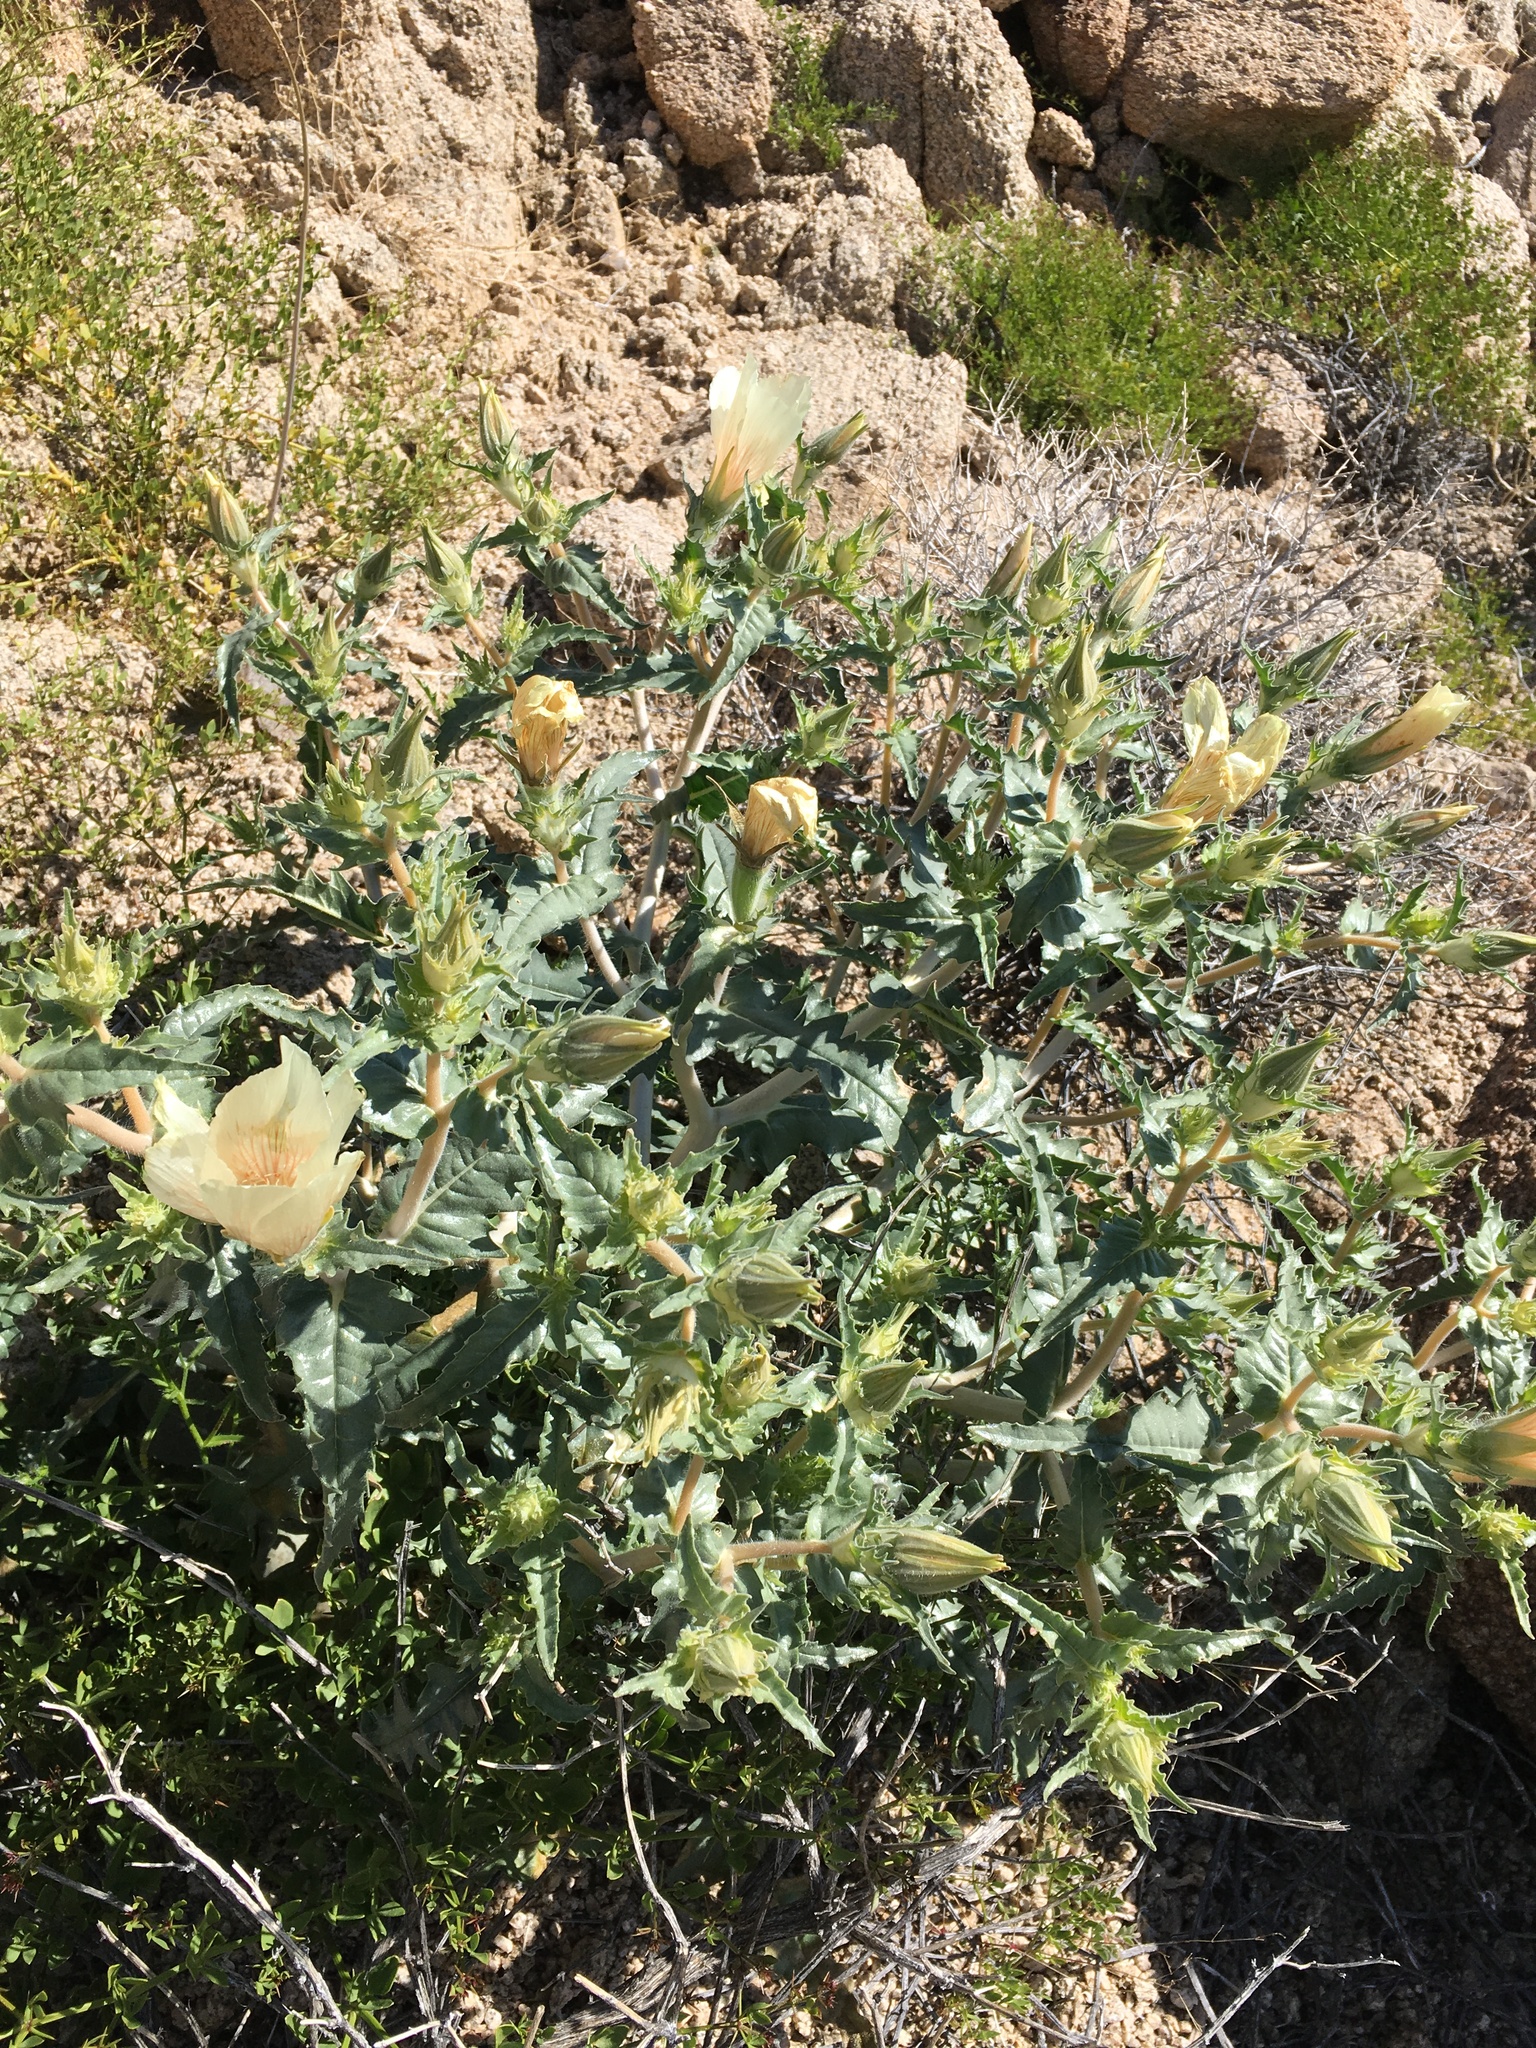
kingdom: Plantae
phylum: Tracheophyta
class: Magnoliopsida
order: Cornales
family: Loasaceae
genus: Mentzelia
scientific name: Mentzelia involucrata
